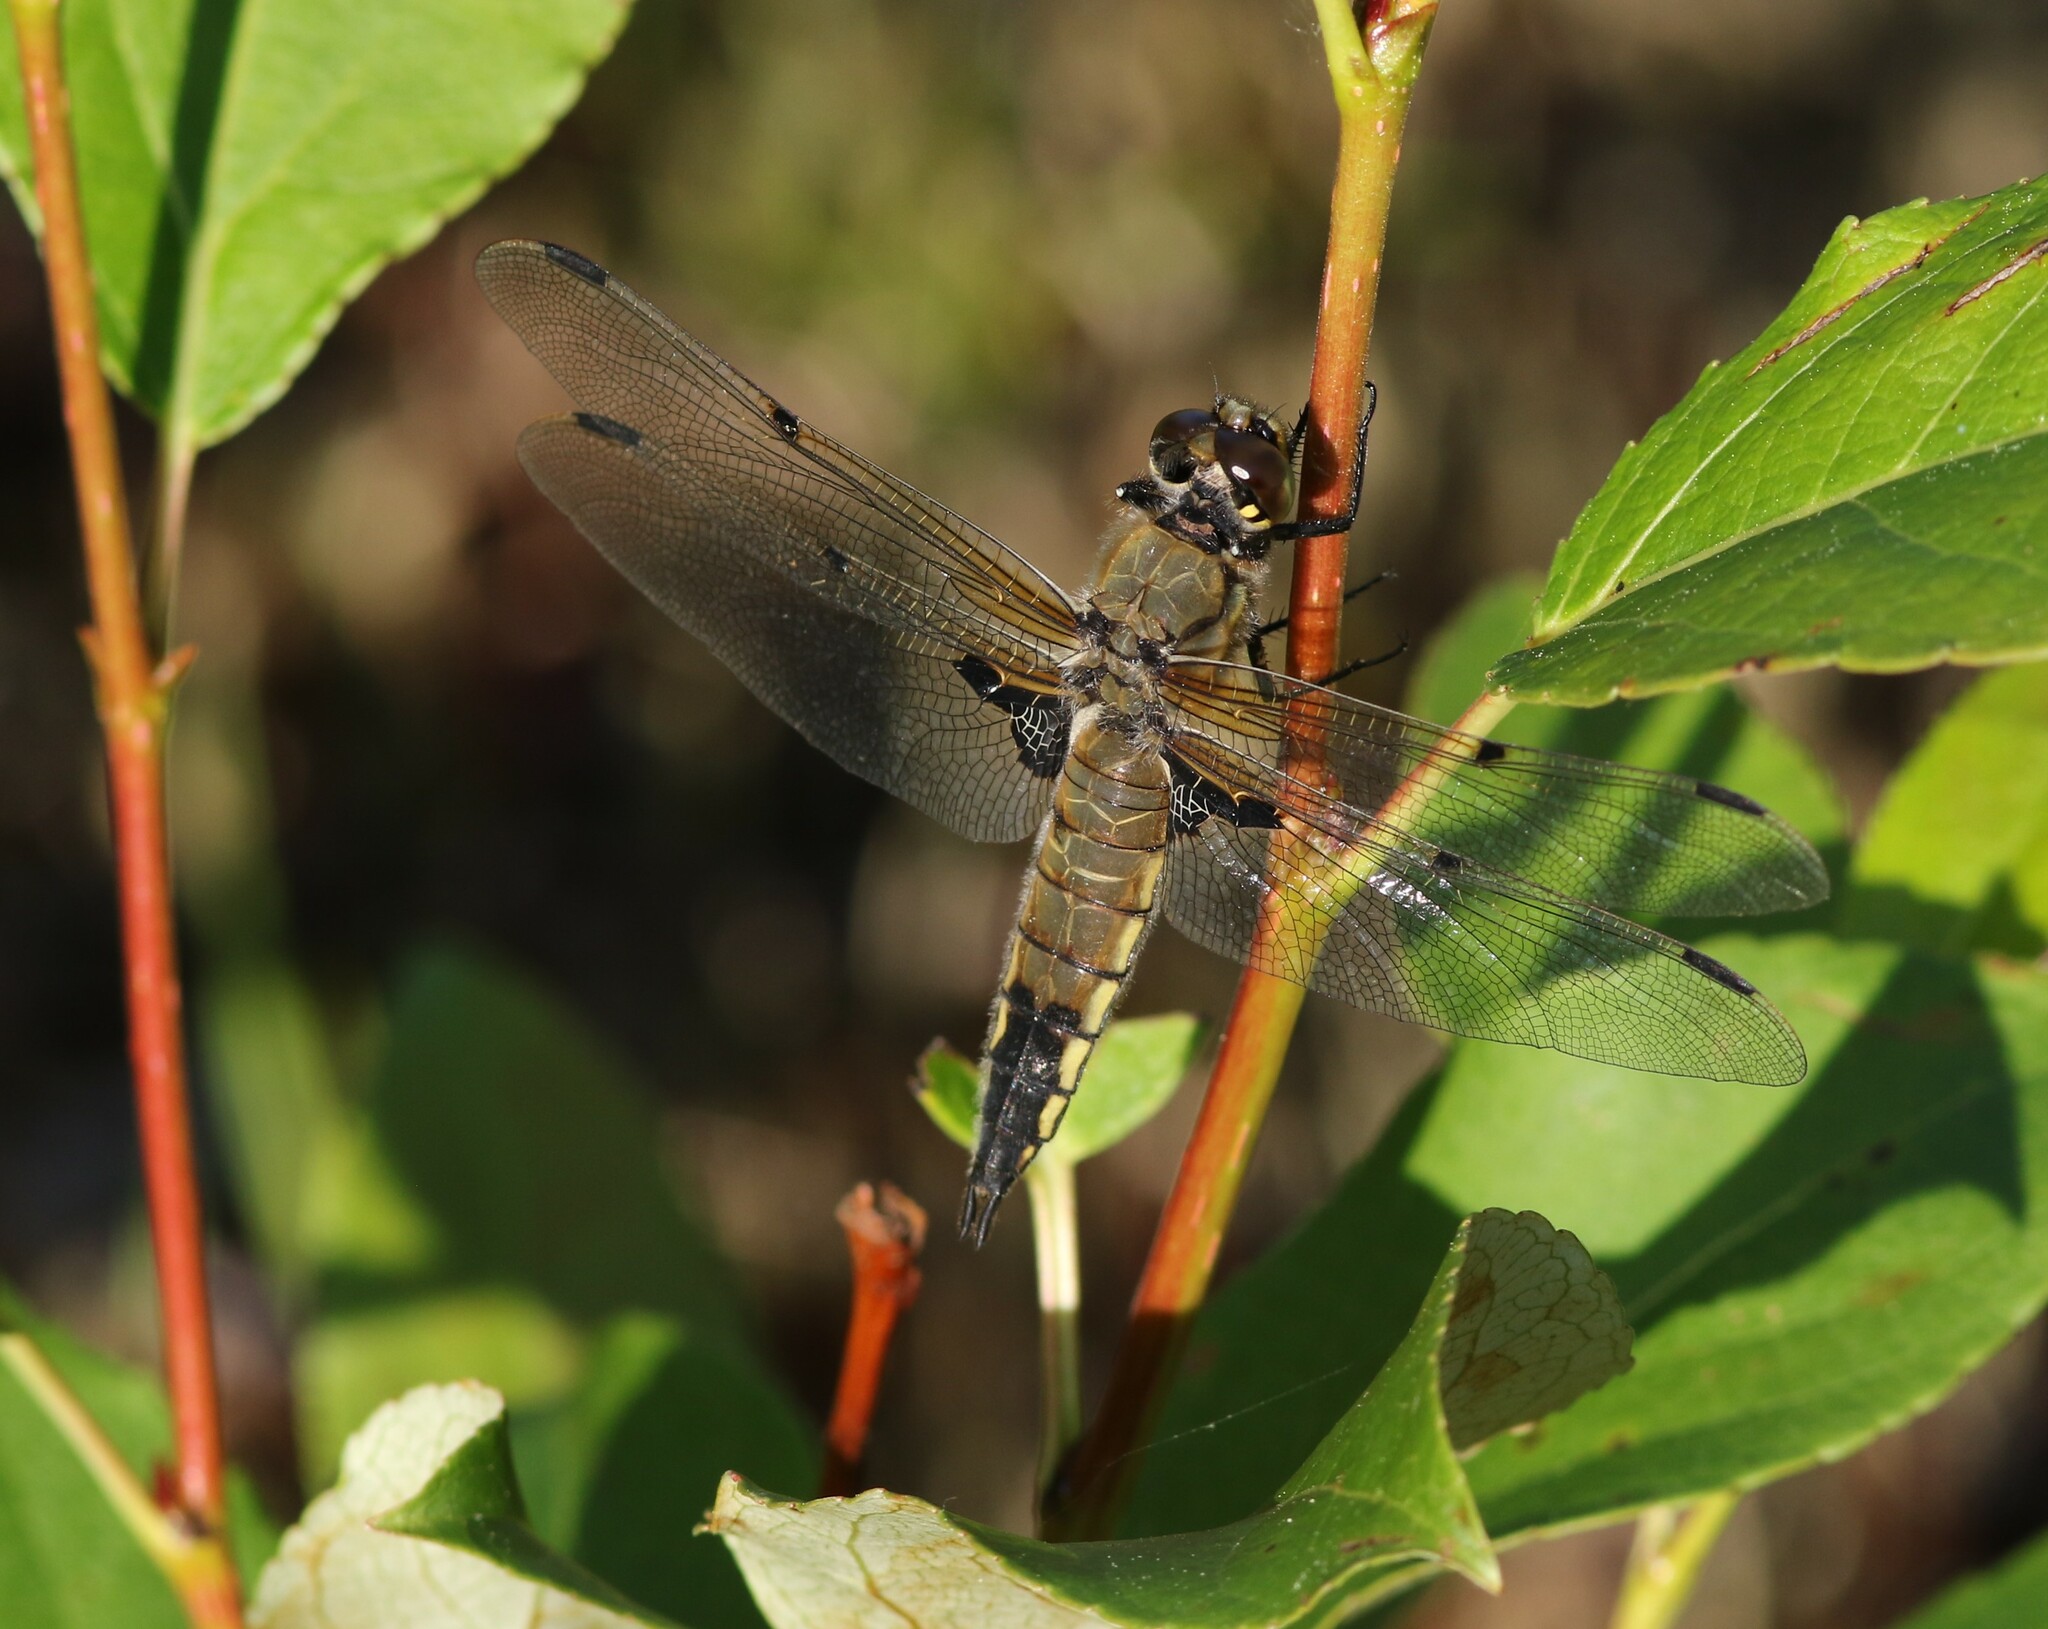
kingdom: Animalia
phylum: Arthropoda
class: Insecta
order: Odonata
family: Libellulidae
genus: Libellula
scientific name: Libellula quadrimaculata
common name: Four-spotted chaser
